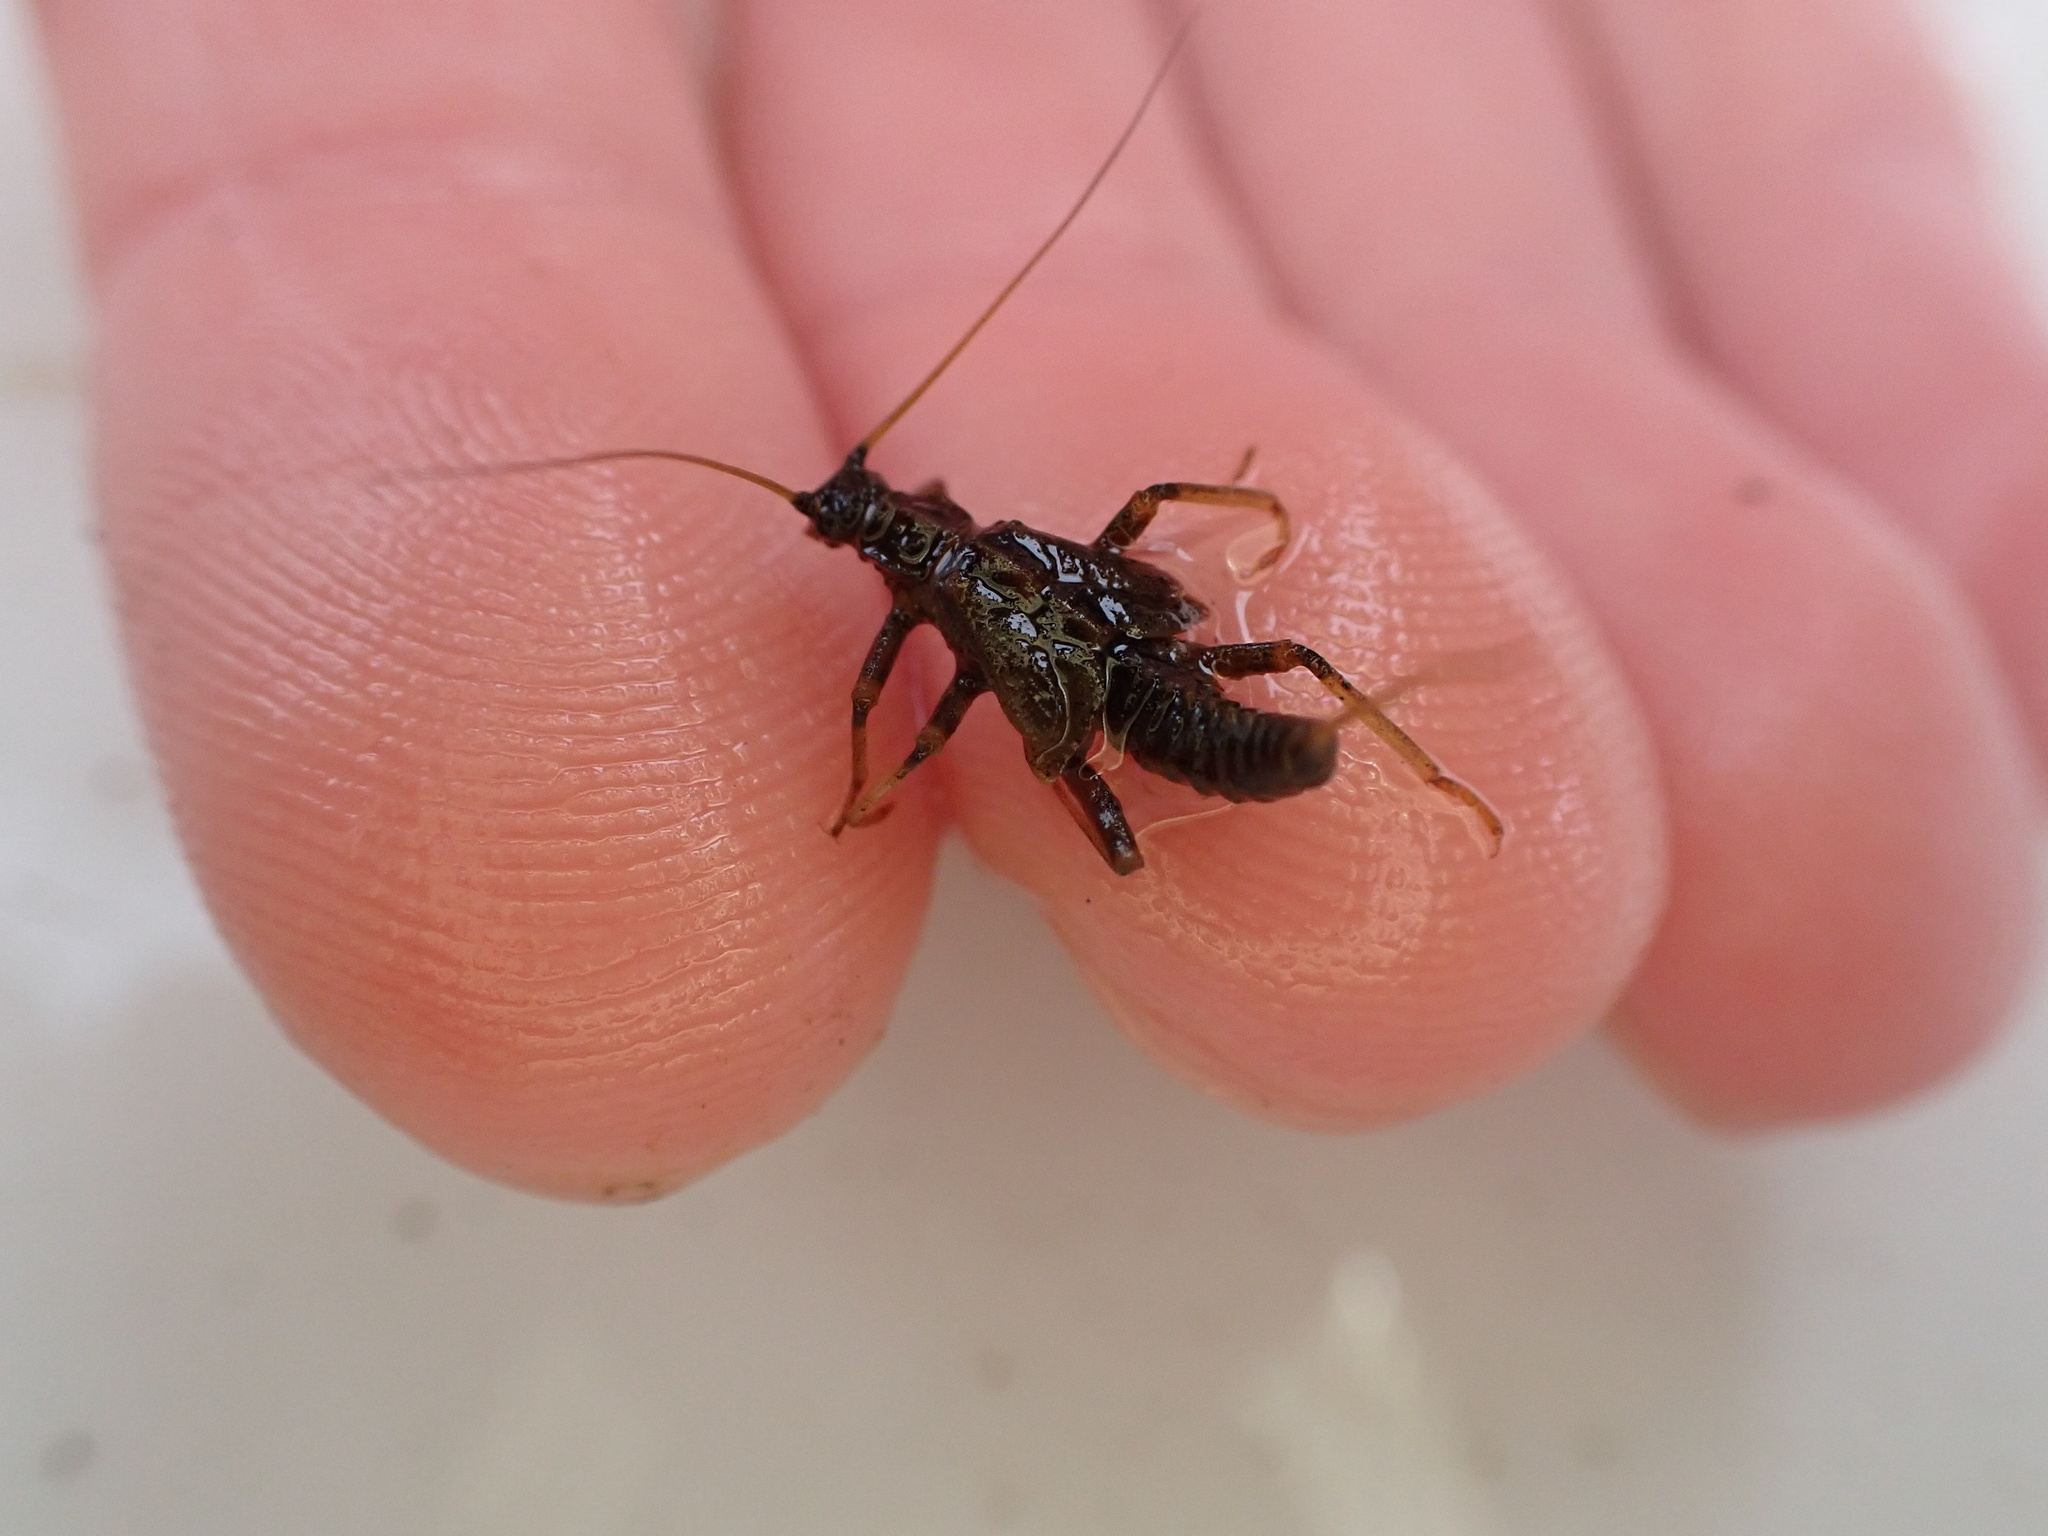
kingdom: Animalia
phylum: Arthropoda
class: Insecta
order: Plecoptera
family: Taeniopterygidae
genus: Taeniopteryx
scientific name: Taeniopteryx nebulosa
